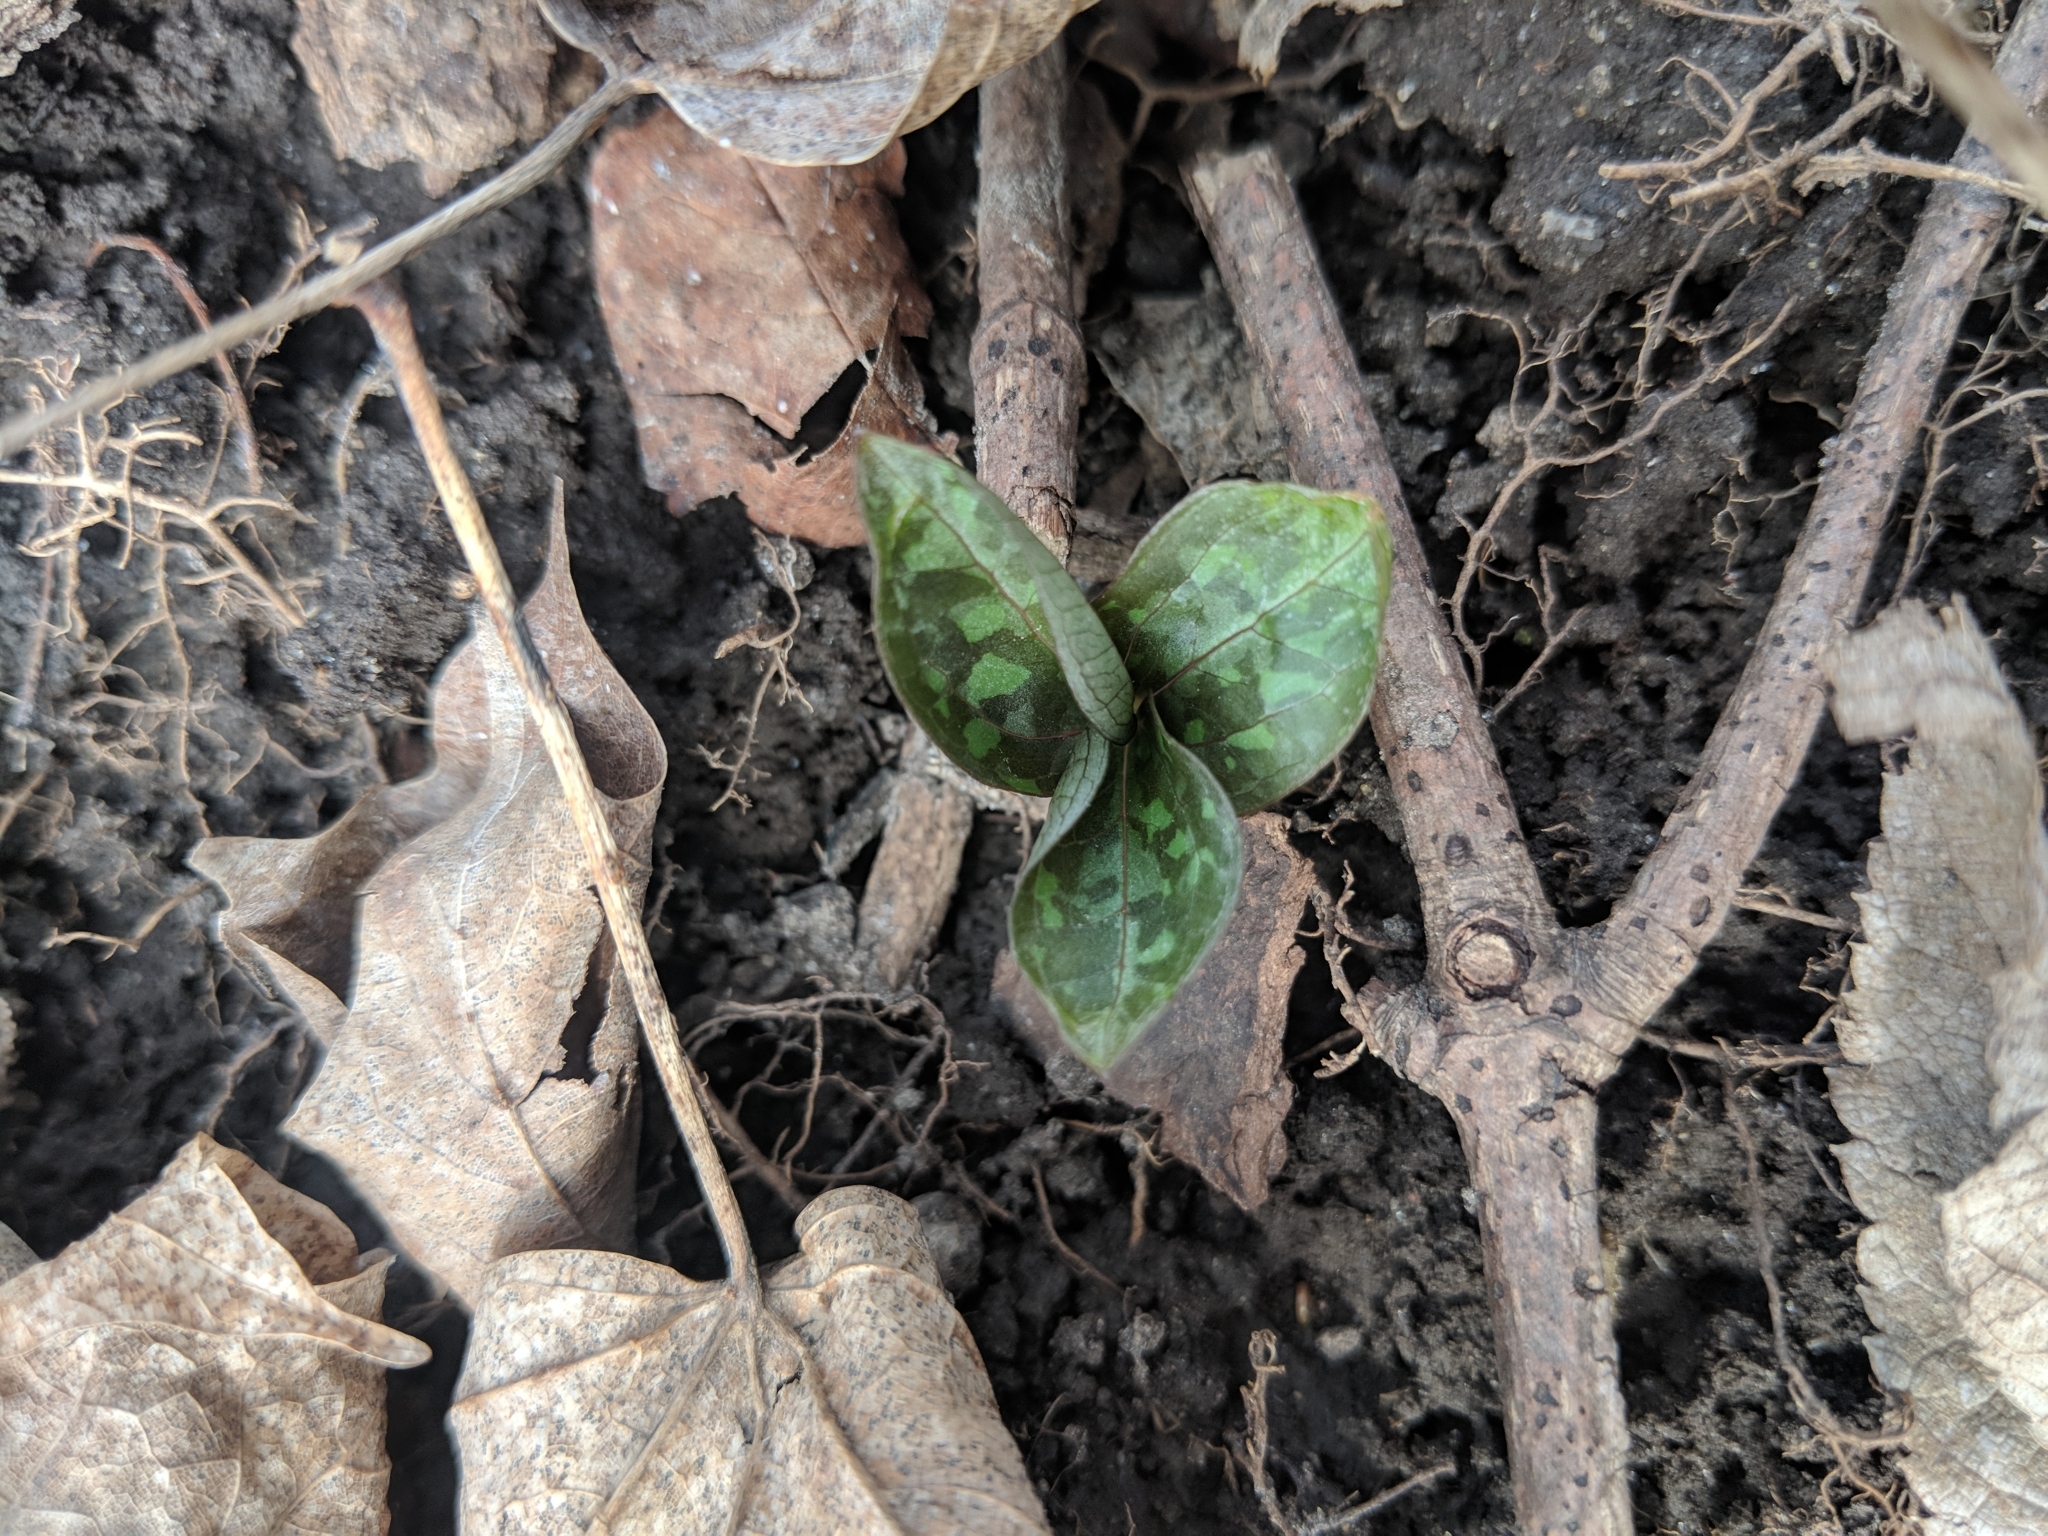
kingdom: Plantae
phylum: Tracheophyta
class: Liliopsida
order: Liliales
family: Melanthiaceae
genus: Trillium
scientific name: Trillium recurvatum
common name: Bloody butcher
